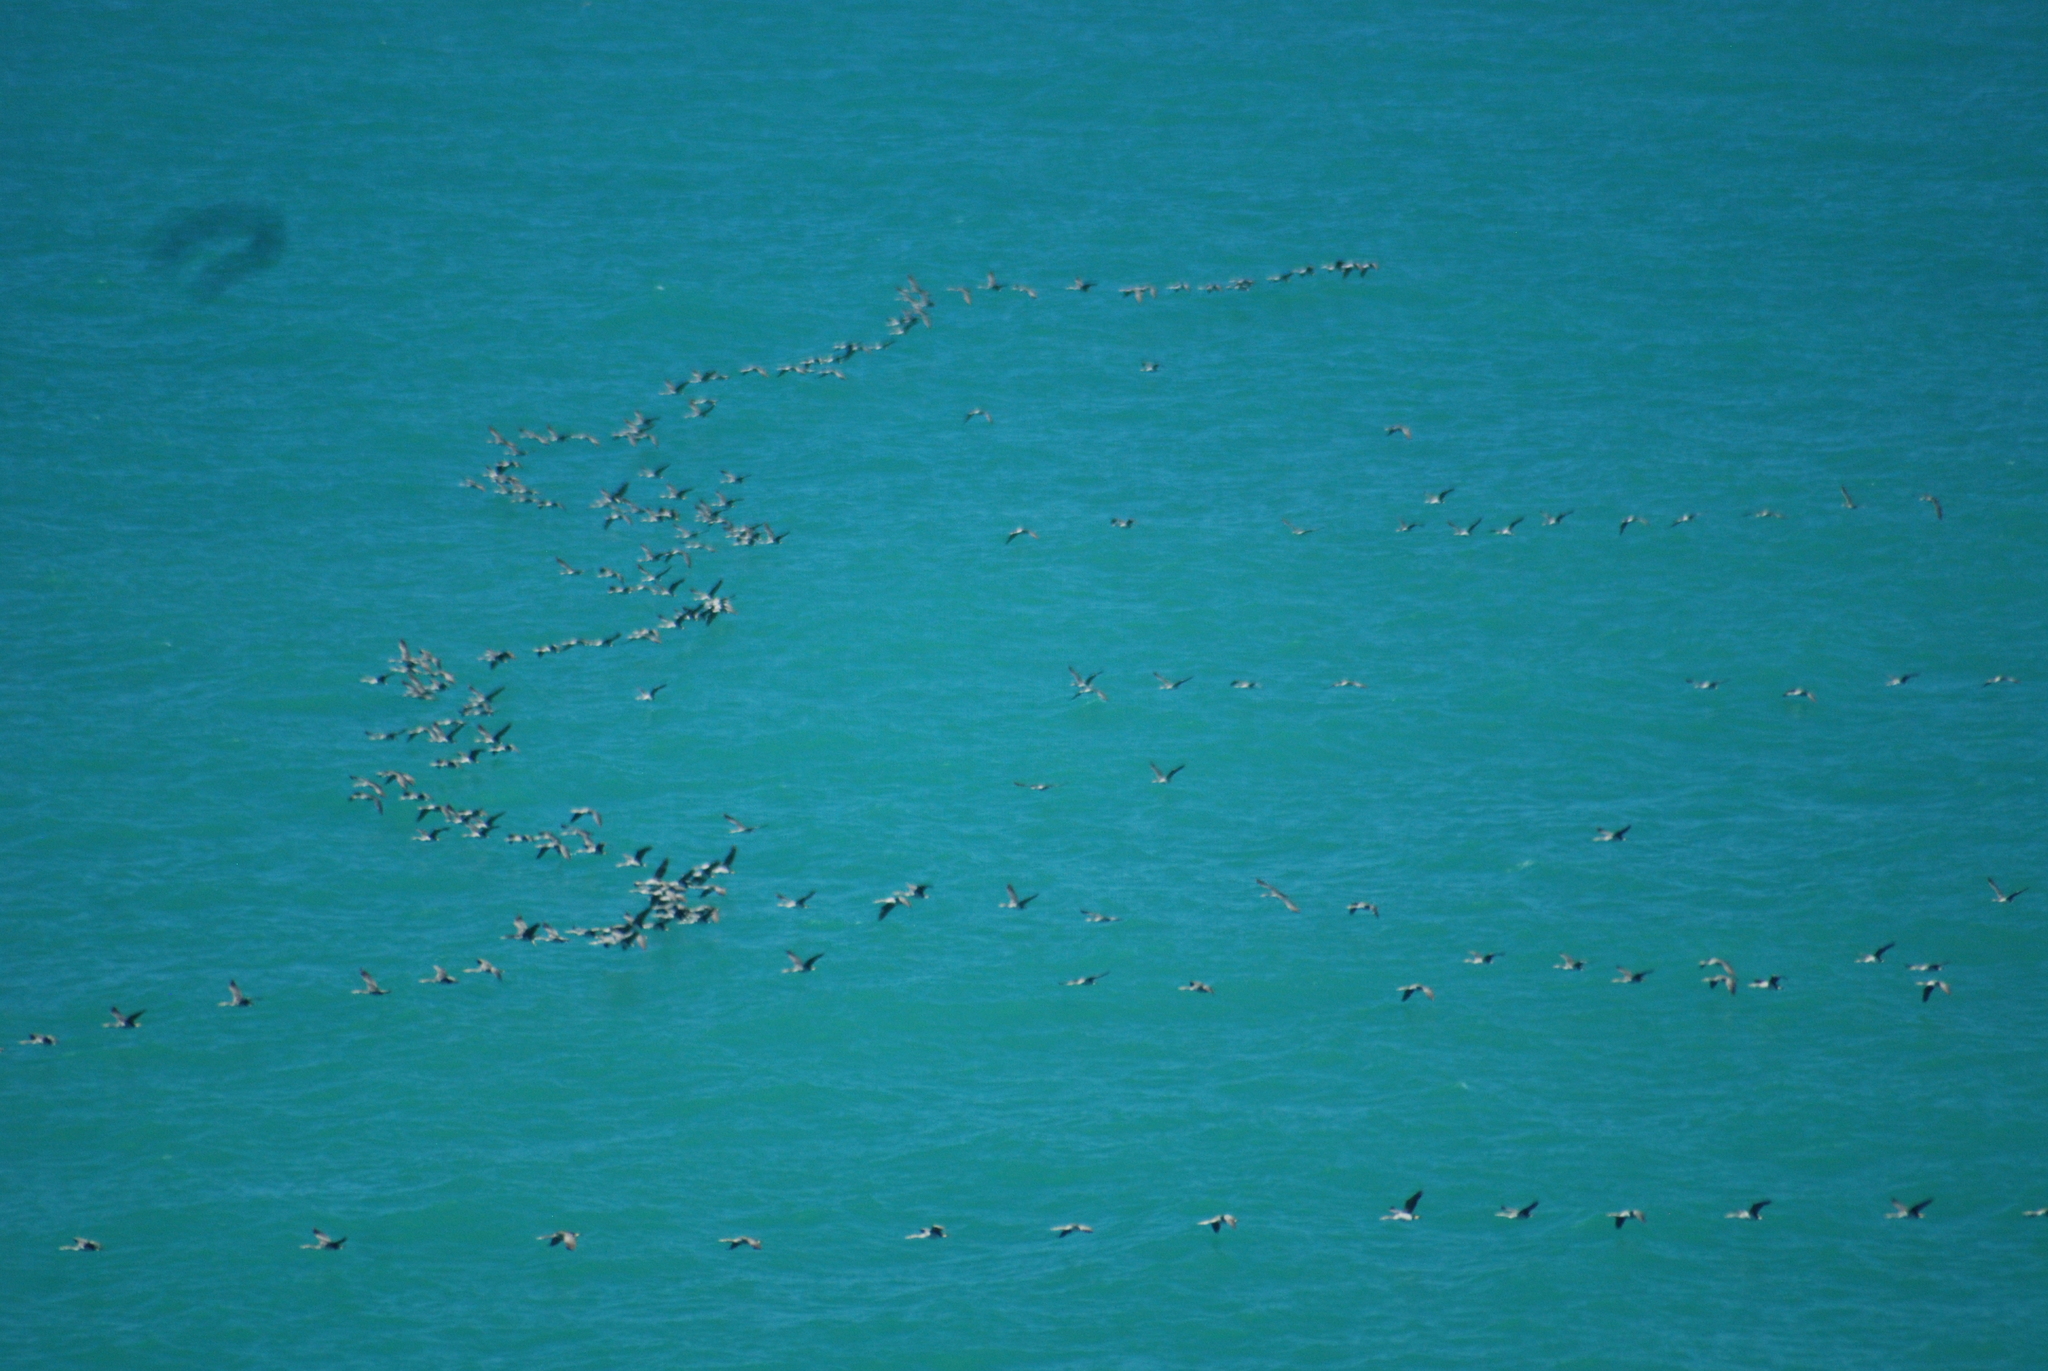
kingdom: Animalia
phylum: Chordata
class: Aves
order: Suliformes
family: Phalacrocoracidae
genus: Phalacrocorax
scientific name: Phalacrocorax punctatus
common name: Spotted shag
